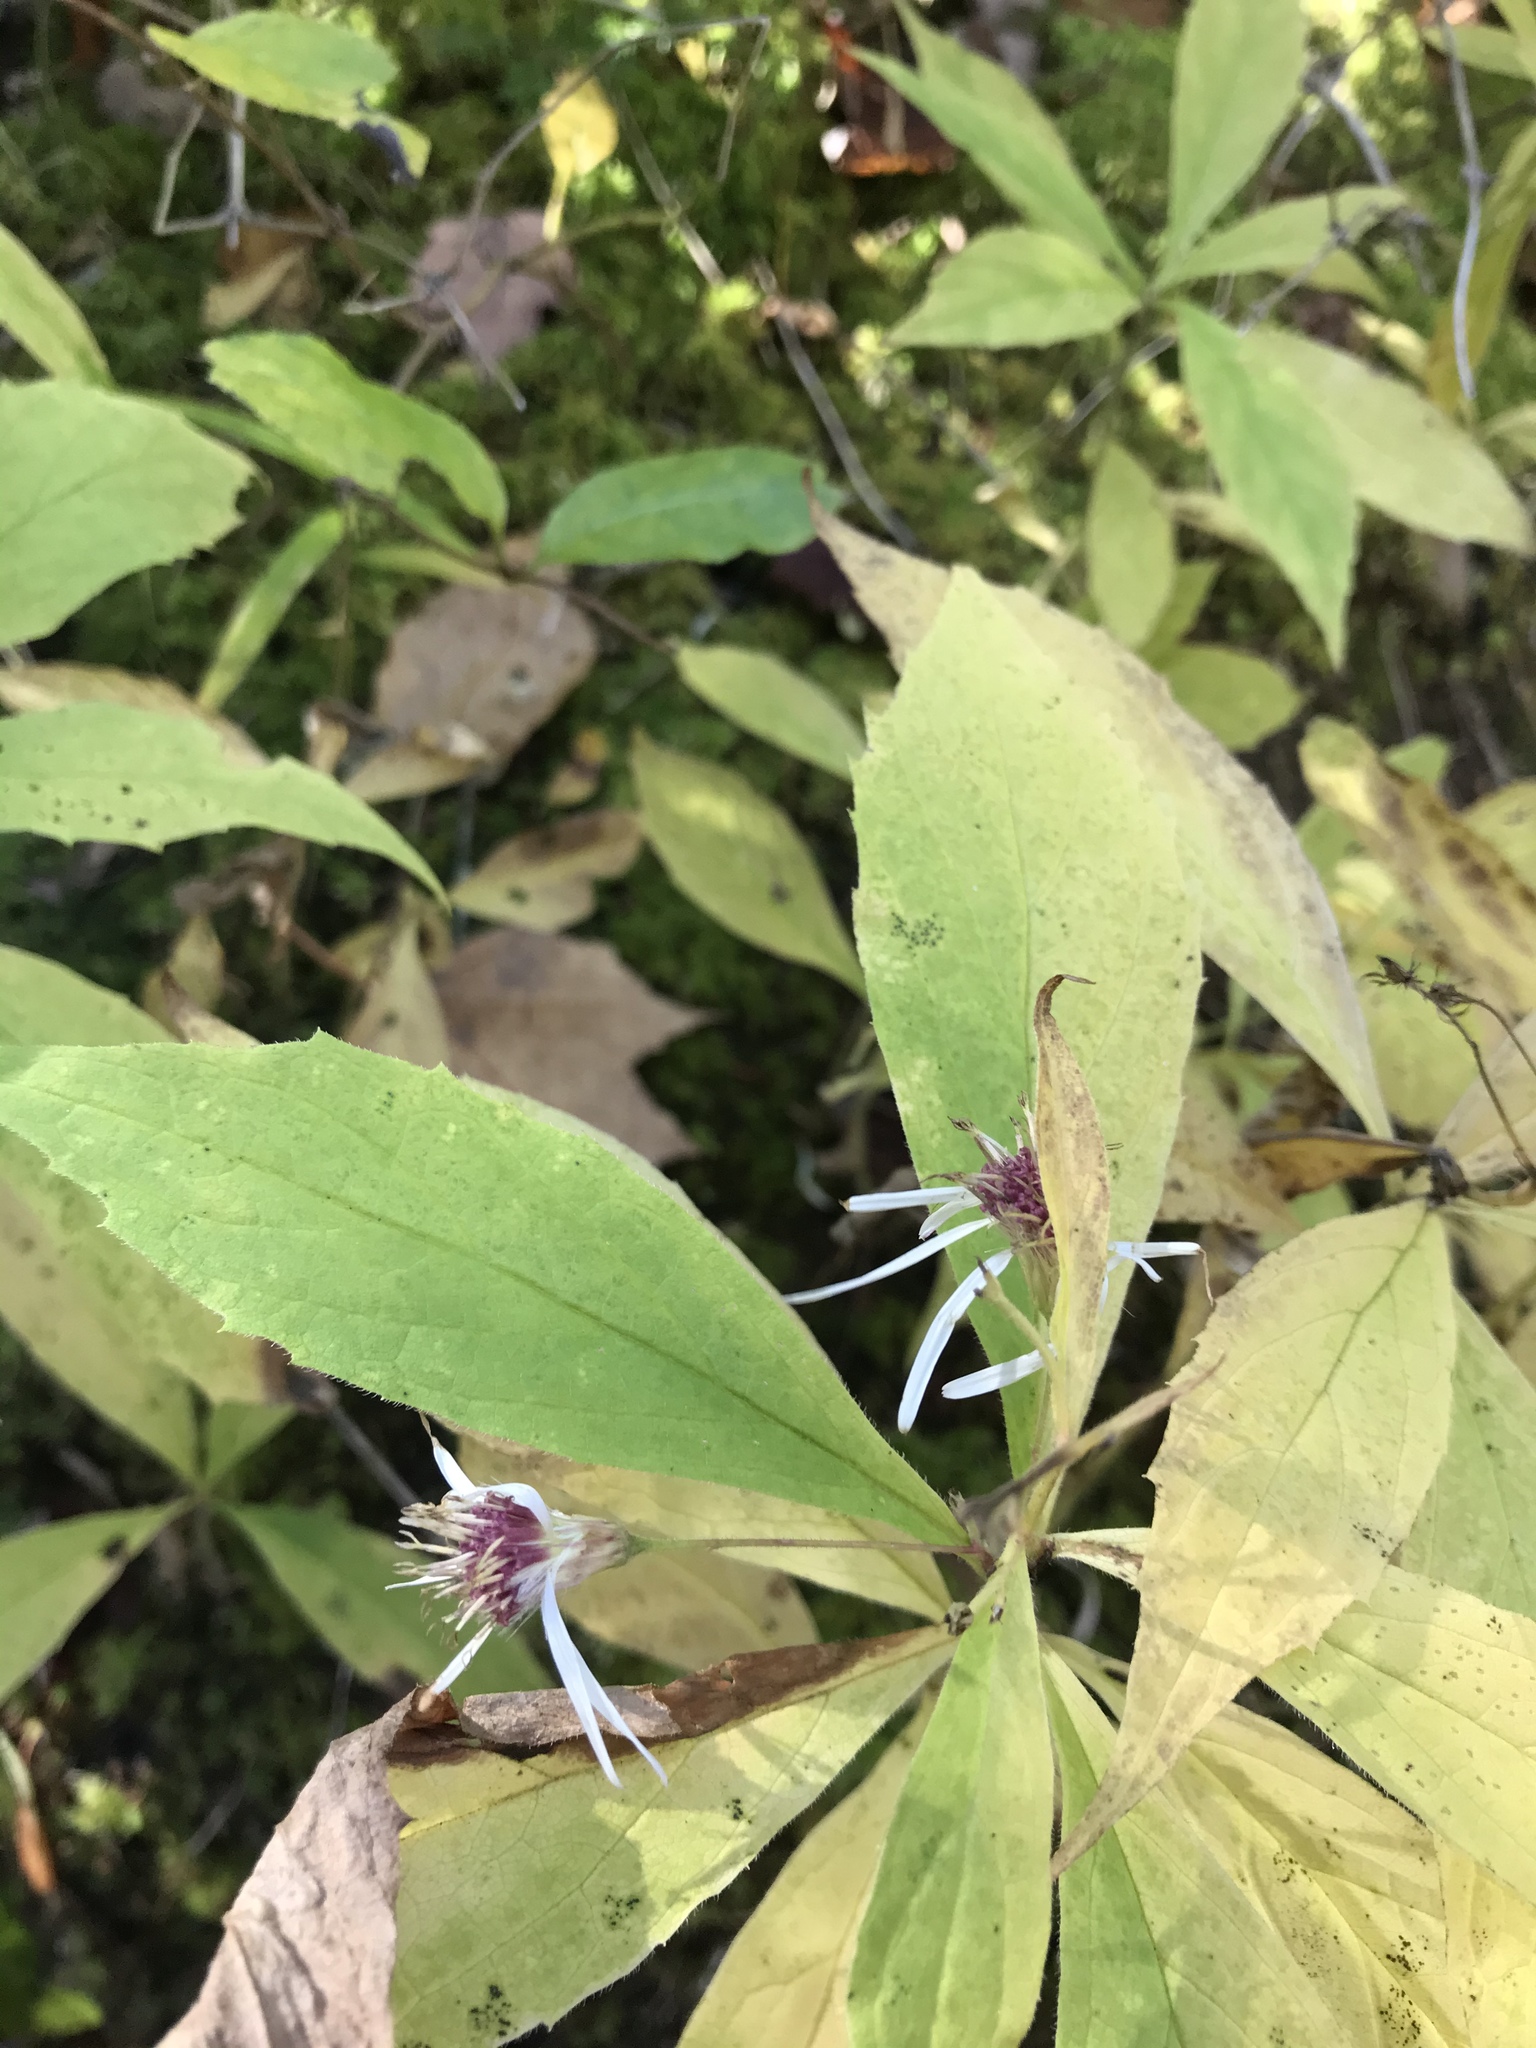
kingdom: Plantae
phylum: Tracheophyta
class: Magnoliopsida
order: Asterales
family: Asteraceae
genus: Oclemena
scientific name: Oclemena acuminata
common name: Mountain aster
